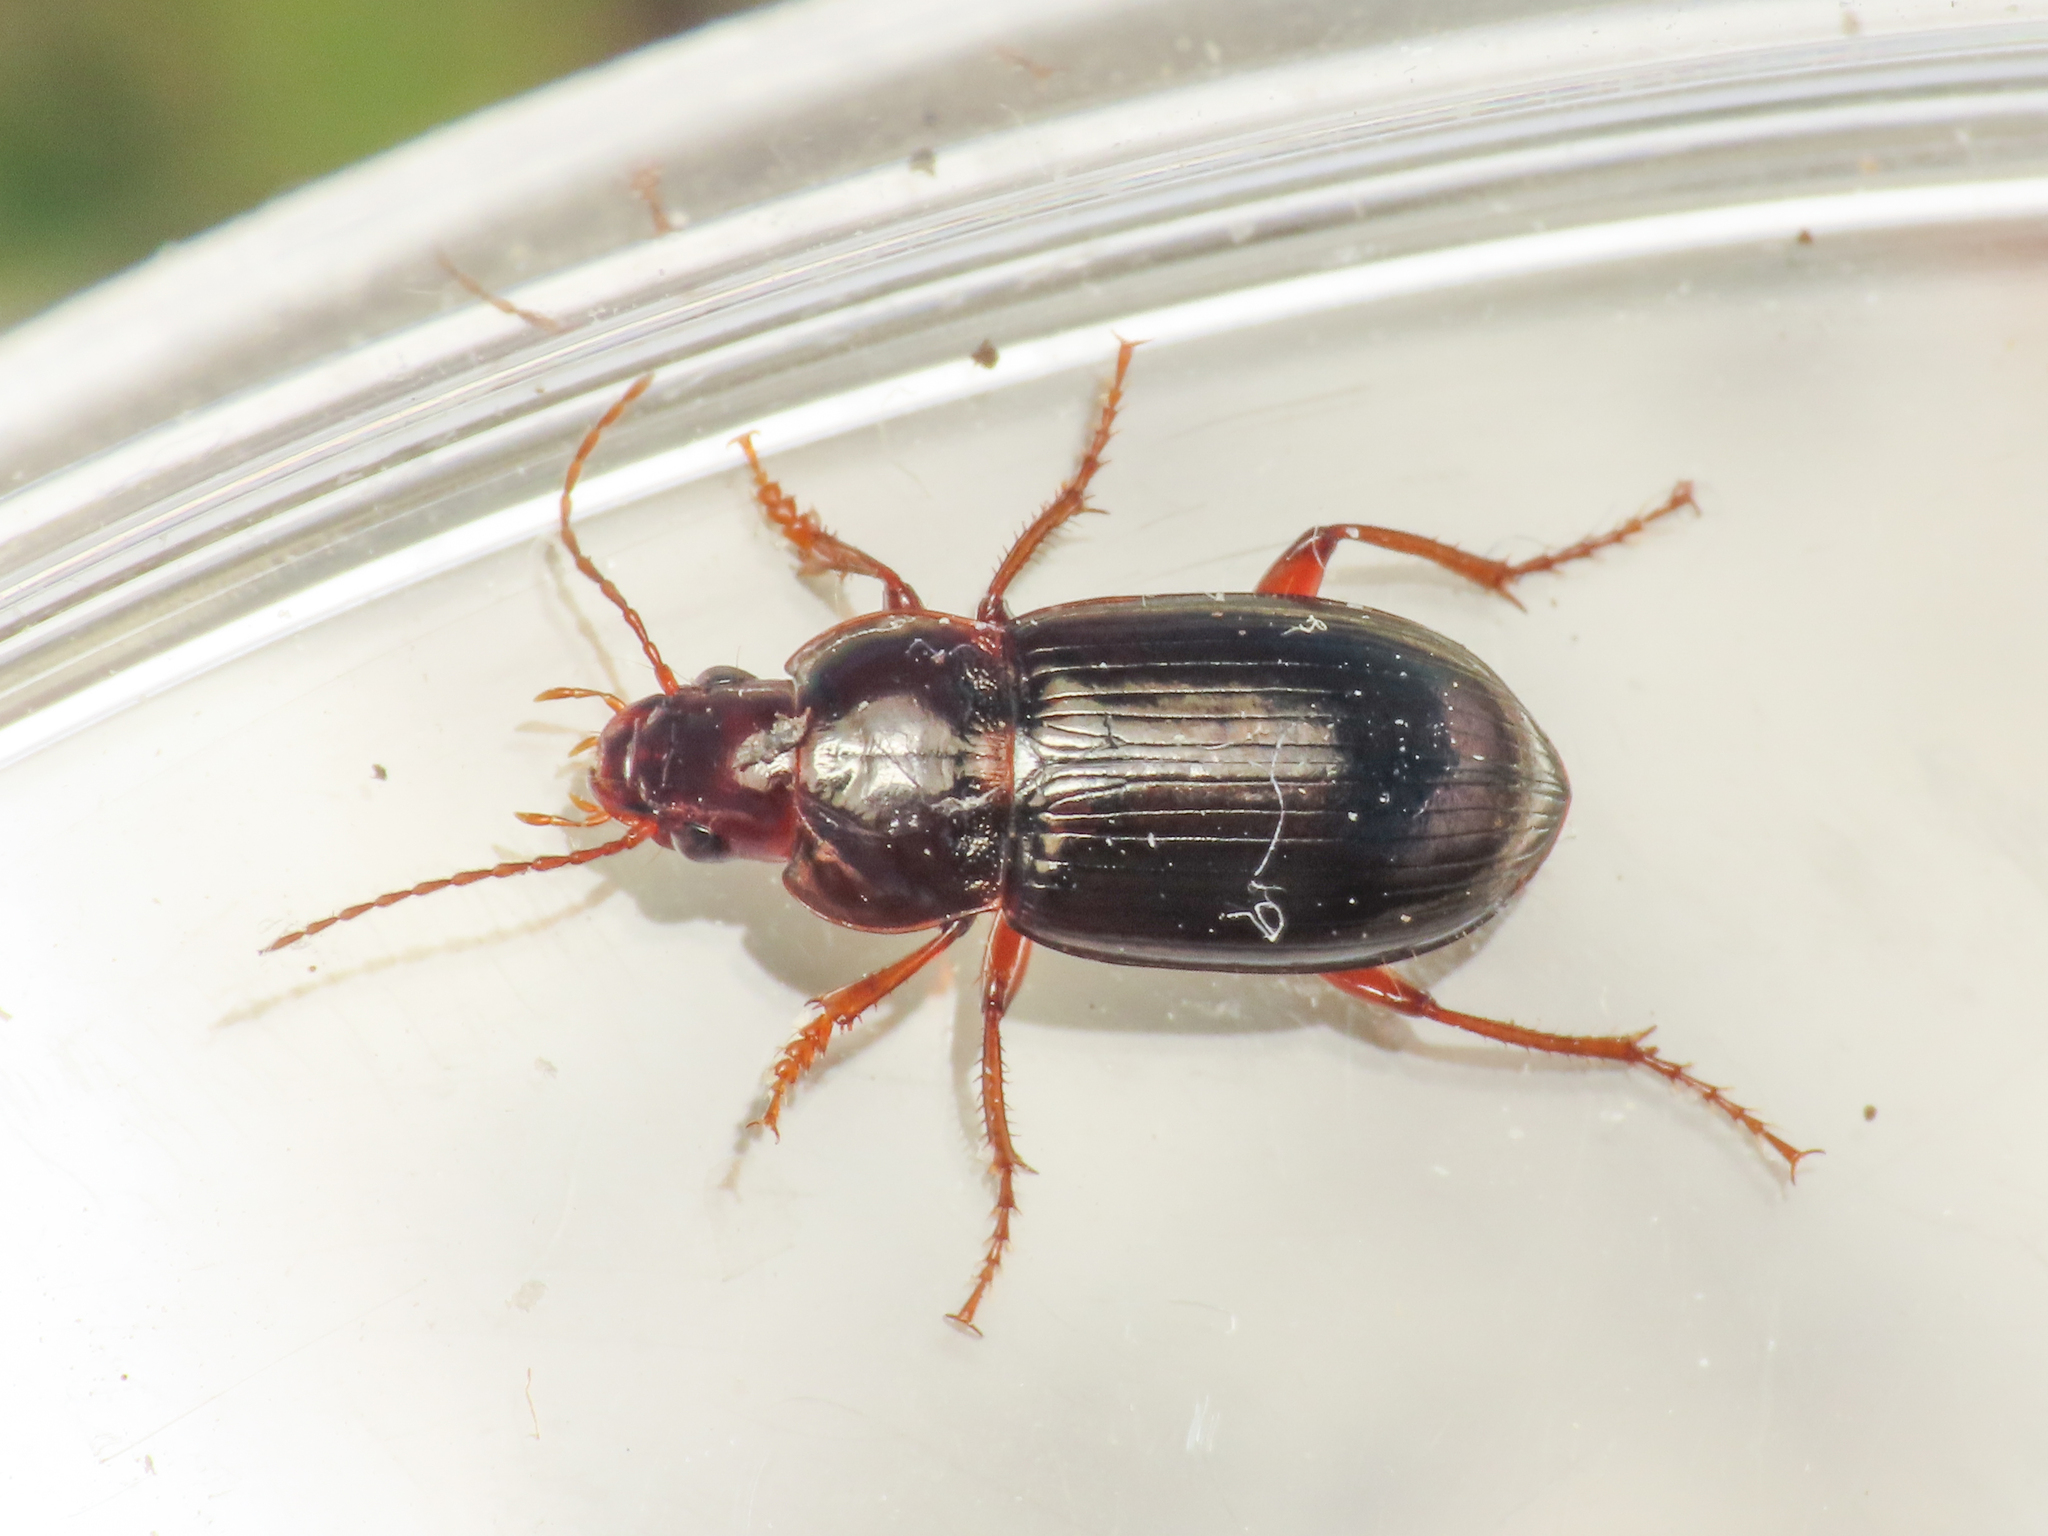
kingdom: Animalia
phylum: Arthropoda
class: Insecta
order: Coleoptera
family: Carabidae
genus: Amara
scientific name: Amara
